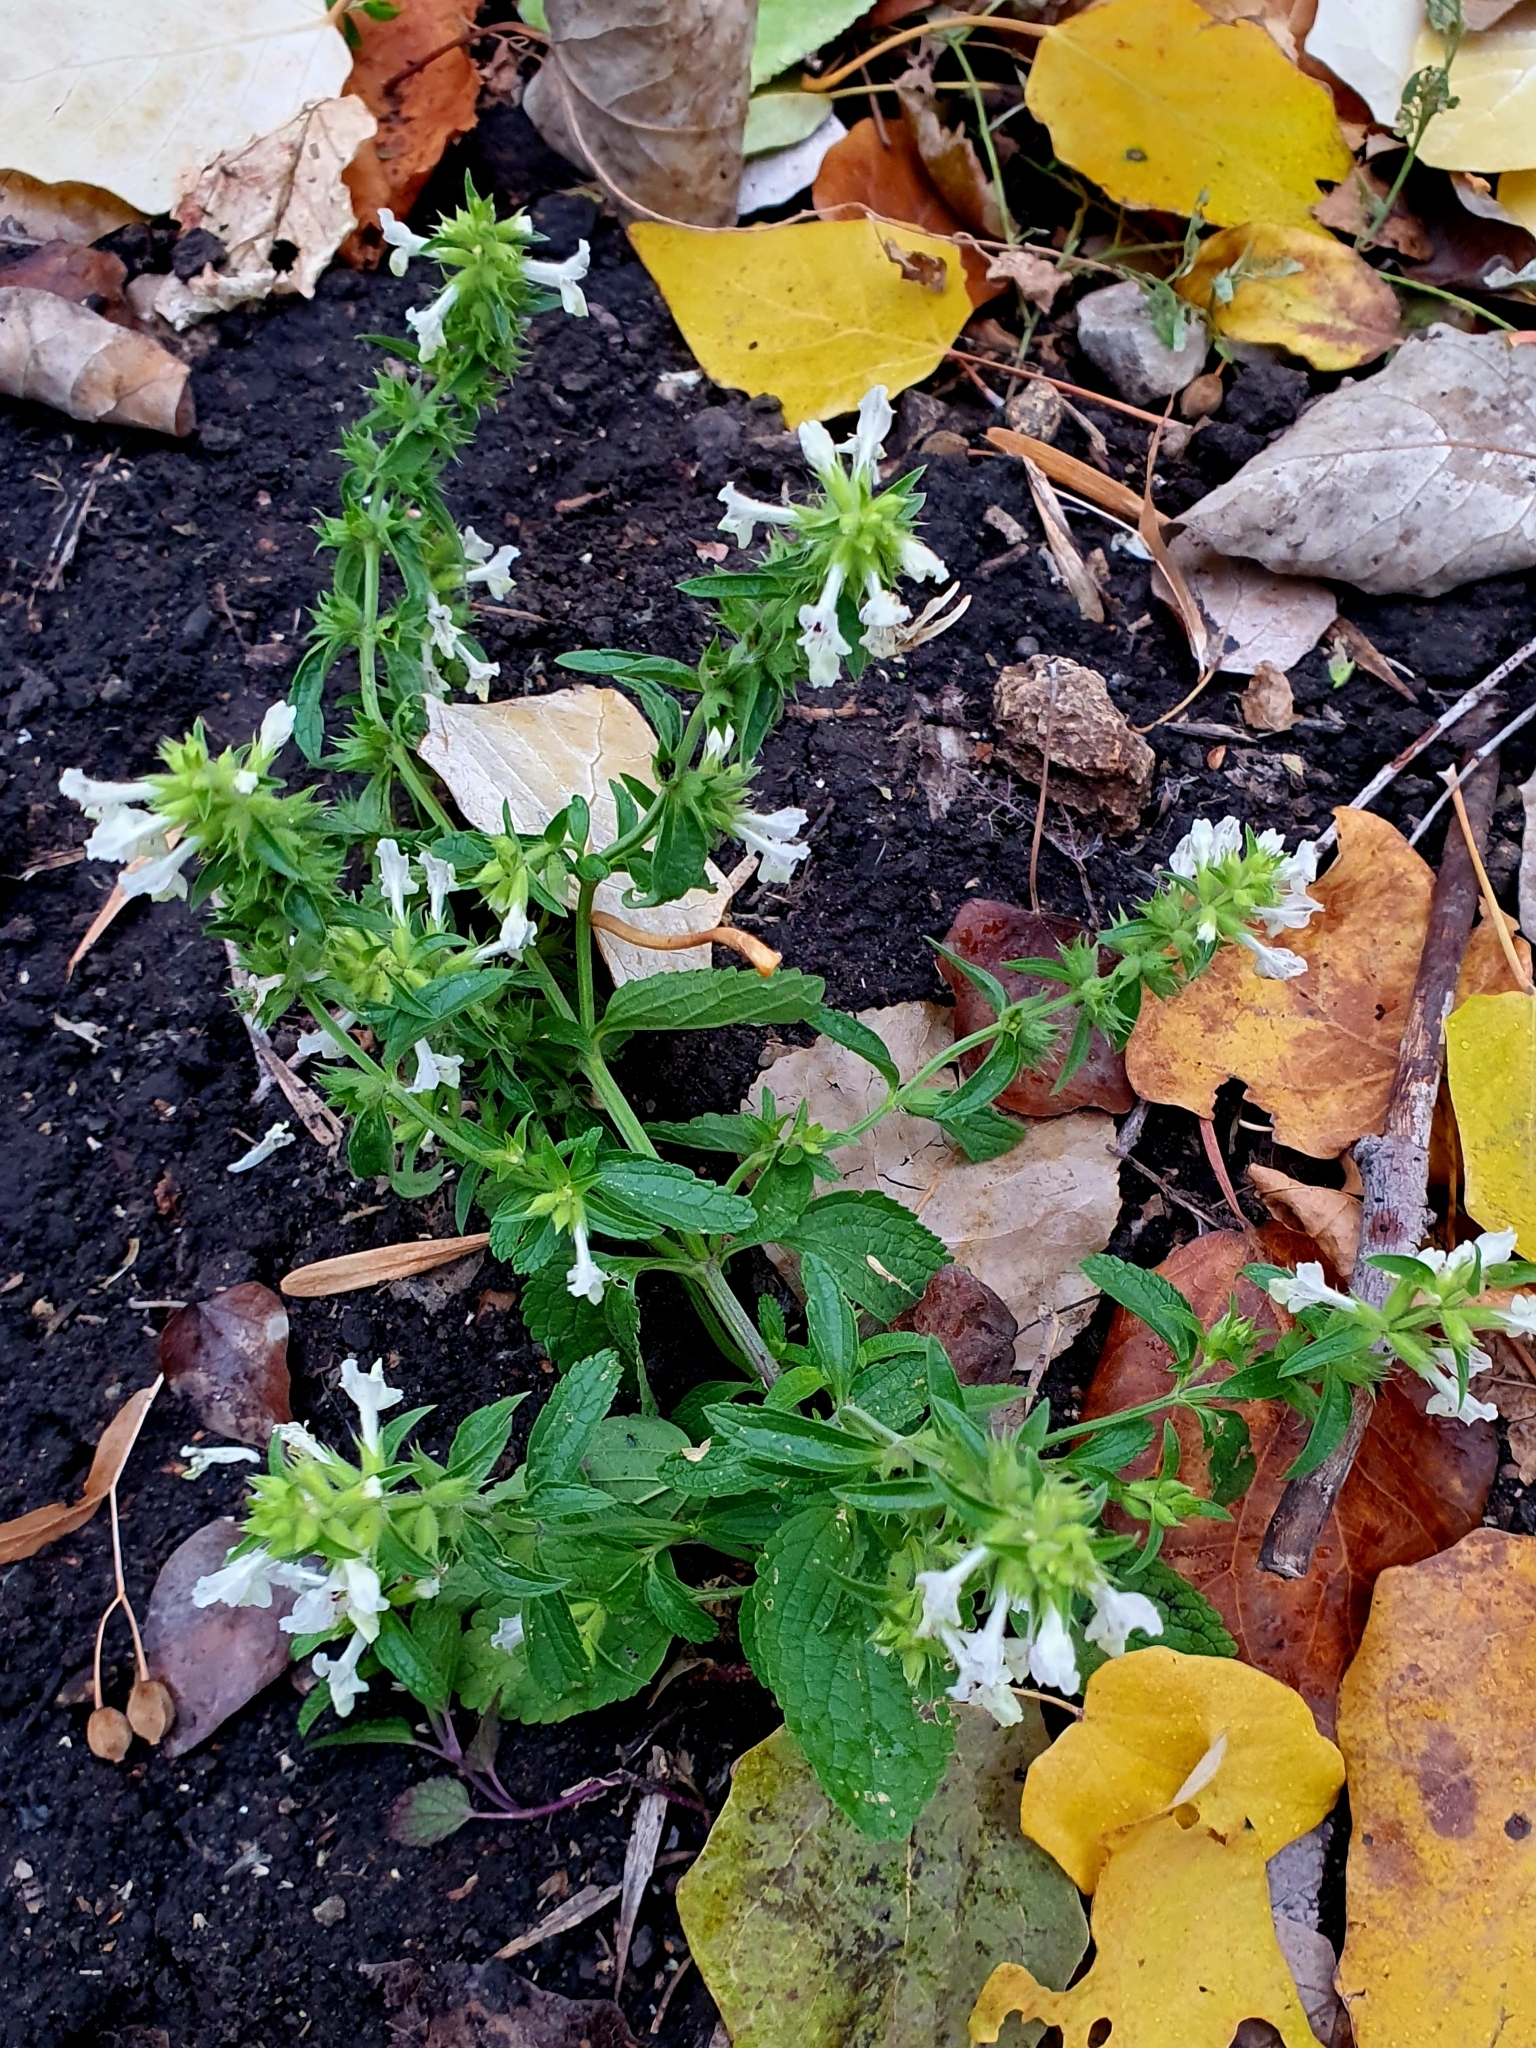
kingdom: Plantae
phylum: Tracheophyta
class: Magnoliopsida
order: Lamiales
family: Lamiaceae
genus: Stachys
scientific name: Stachys annua
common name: Annual yellow-woundwort
